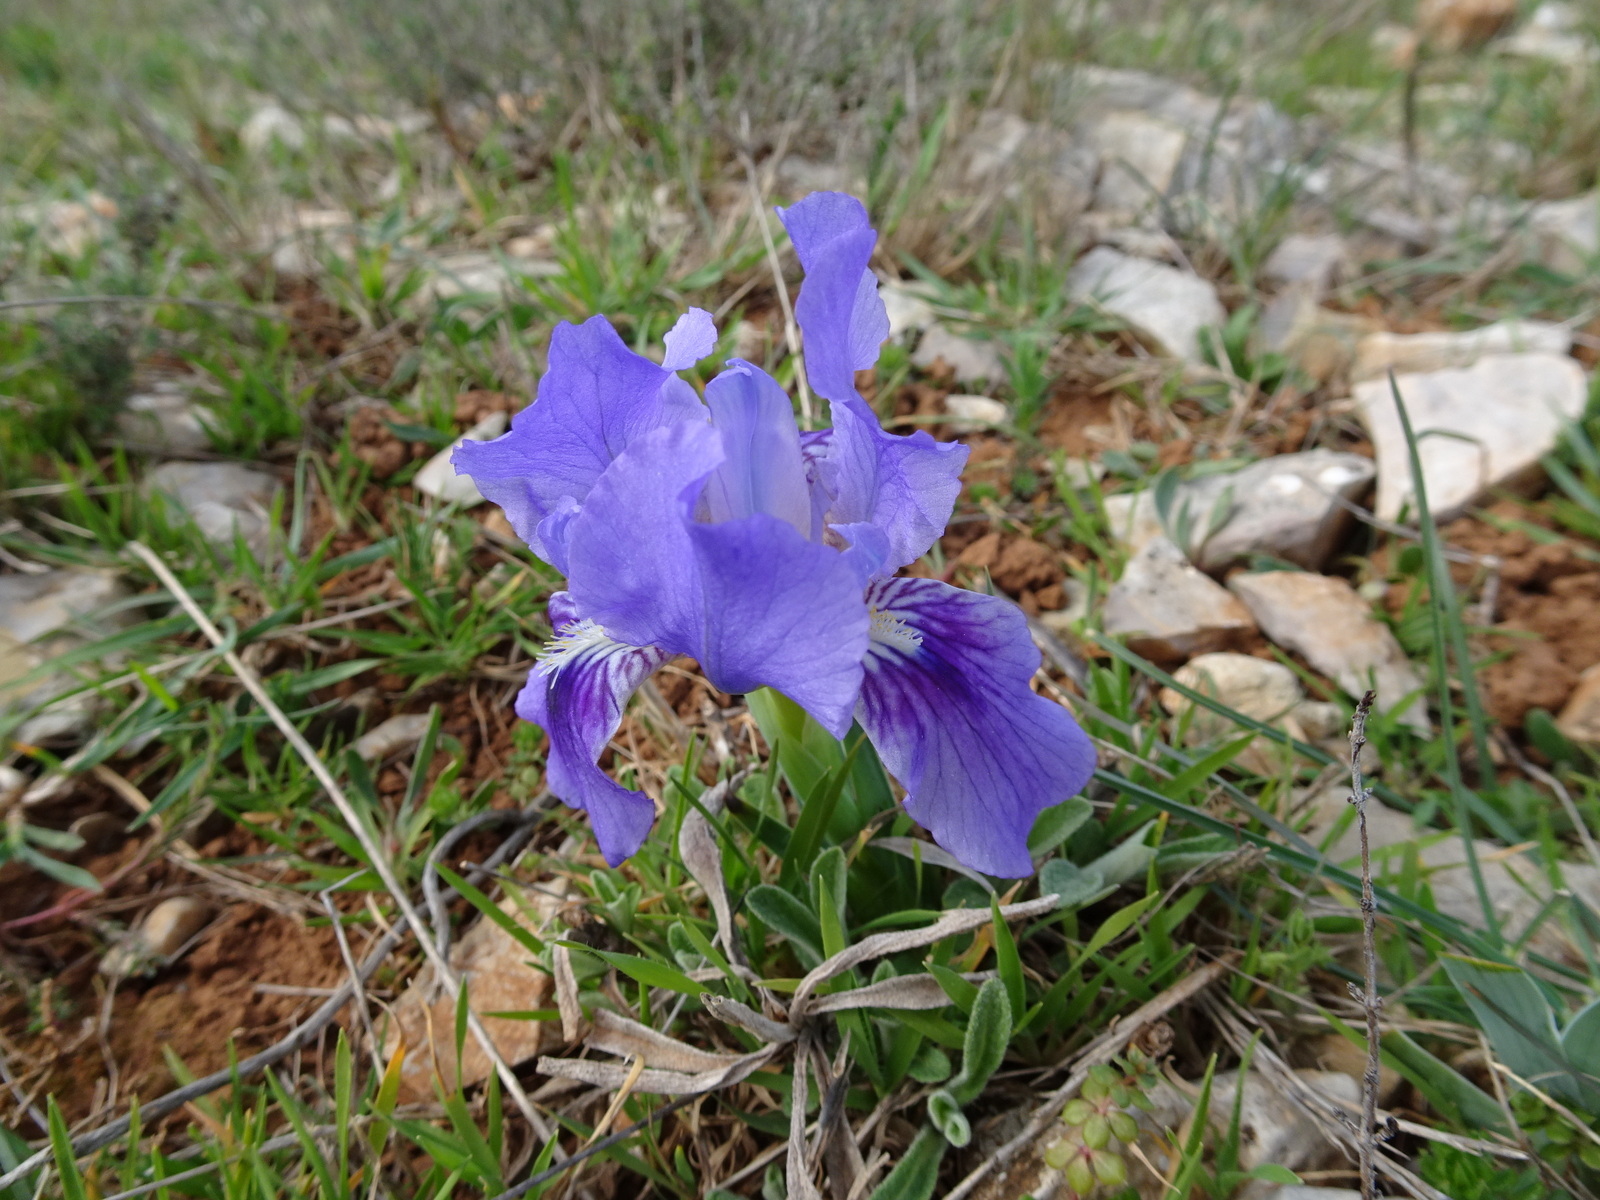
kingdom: Plantae
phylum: Tracheophyta
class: Liliopsida
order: Asparagales
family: Iridaceae
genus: Iris
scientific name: Iris lutescens
